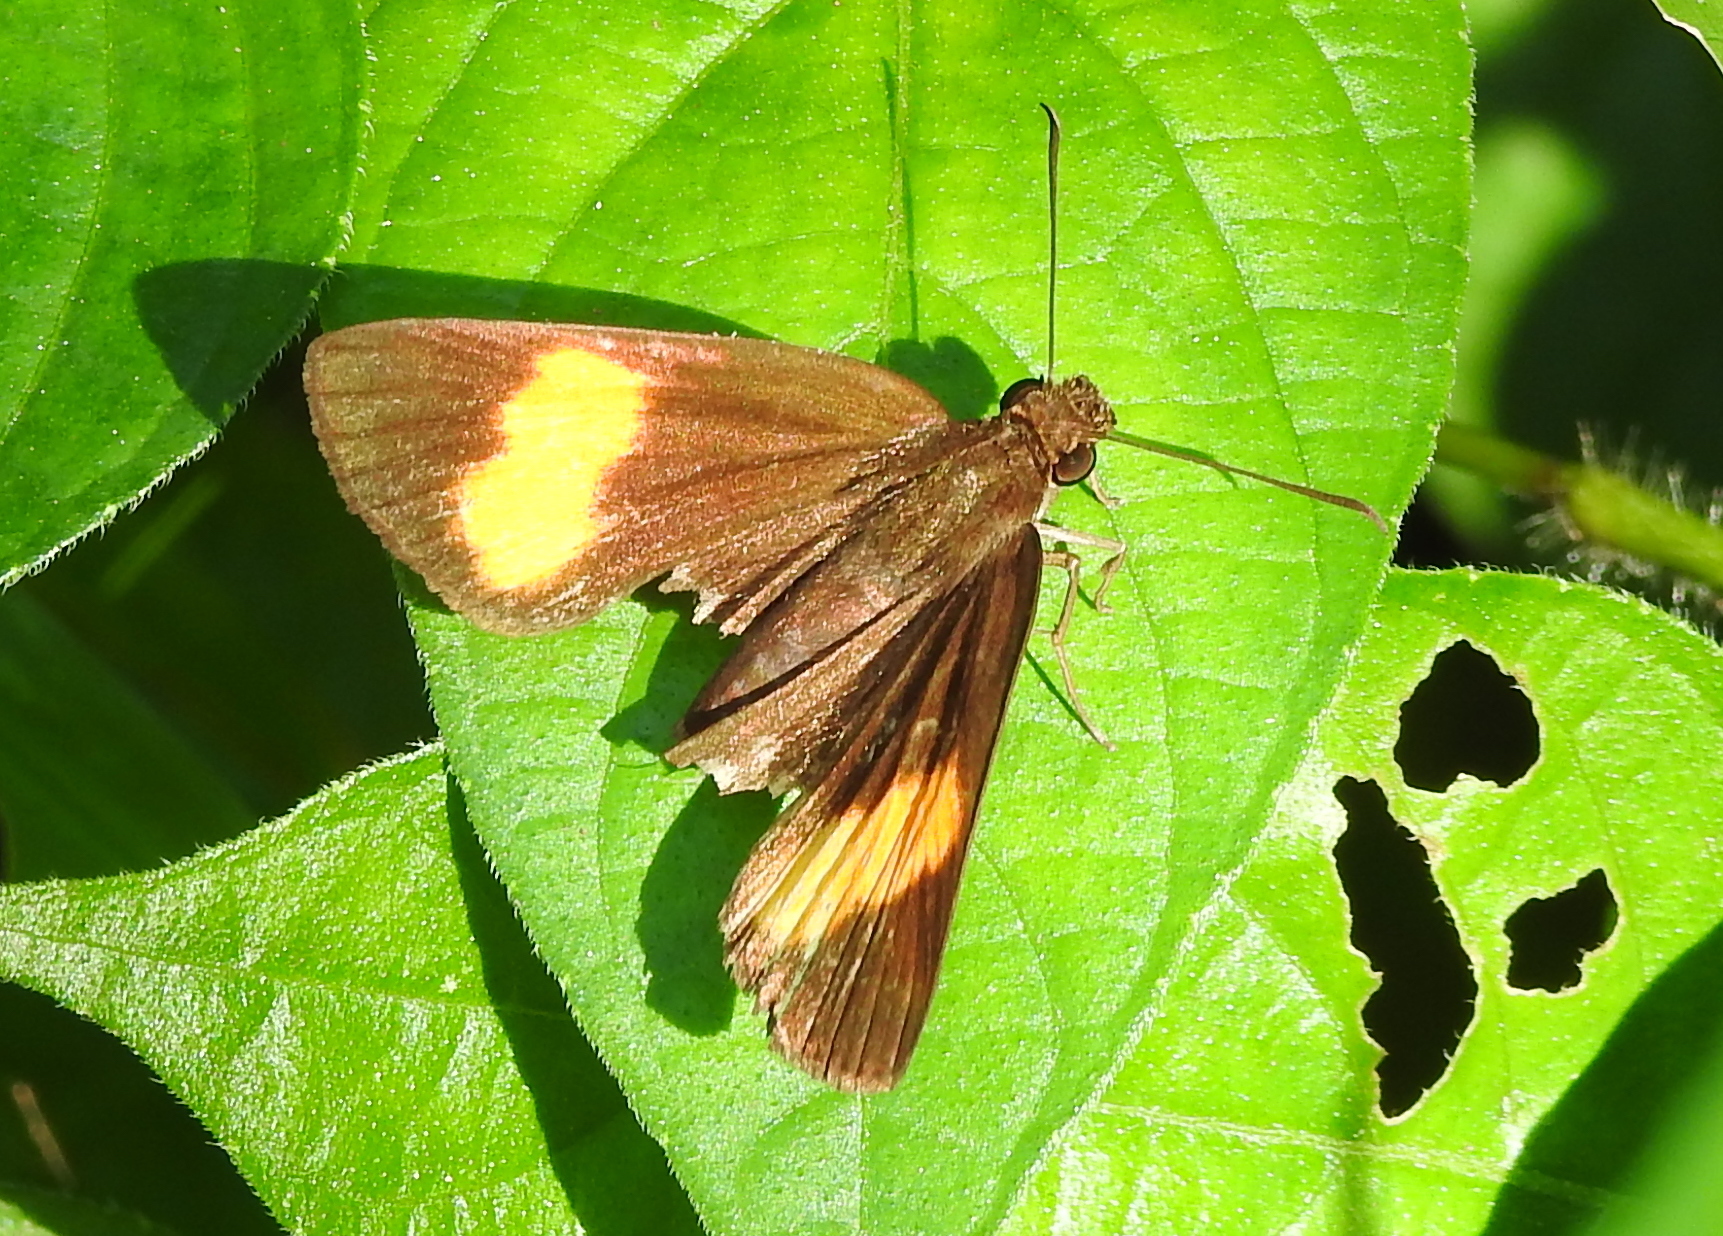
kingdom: Animalia
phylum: Arthropoda
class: Insecta
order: Lepidoptera
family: Hesperiidae
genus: Koruthaialos
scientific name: Koruthaialos sindu
